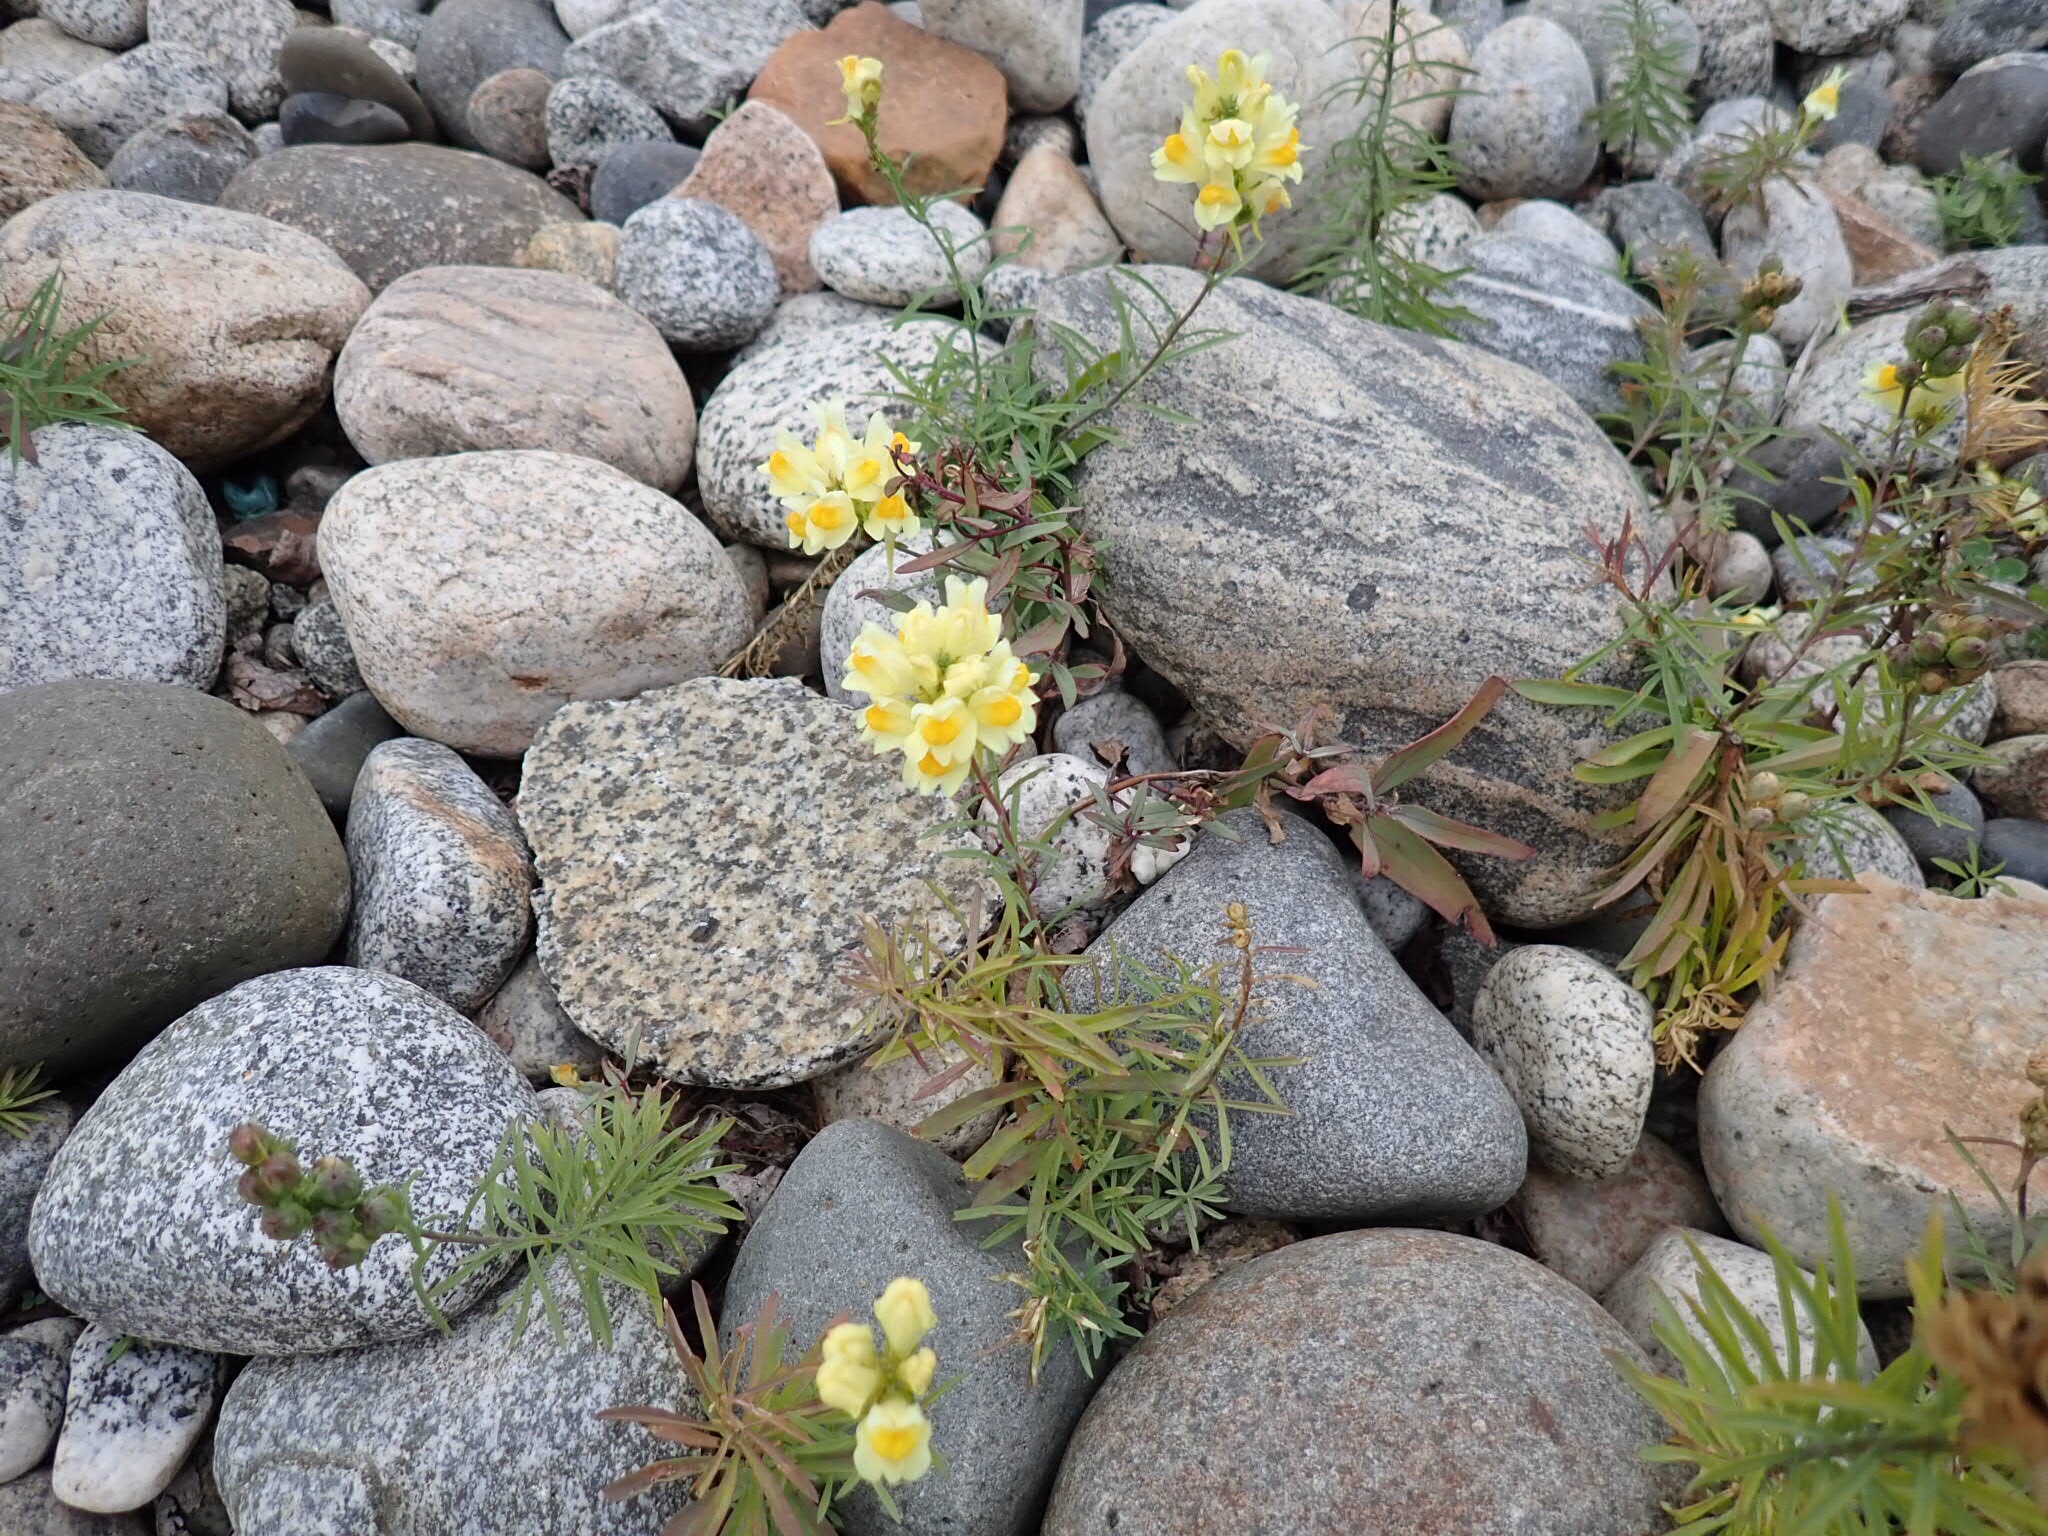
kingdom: Plantae
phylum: Tracheophyta
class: Magnoliopsida
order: Lamiales
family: Plantaginaceae
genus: Linaria
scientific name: Linaria vulgaris
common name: Butter and eggs
